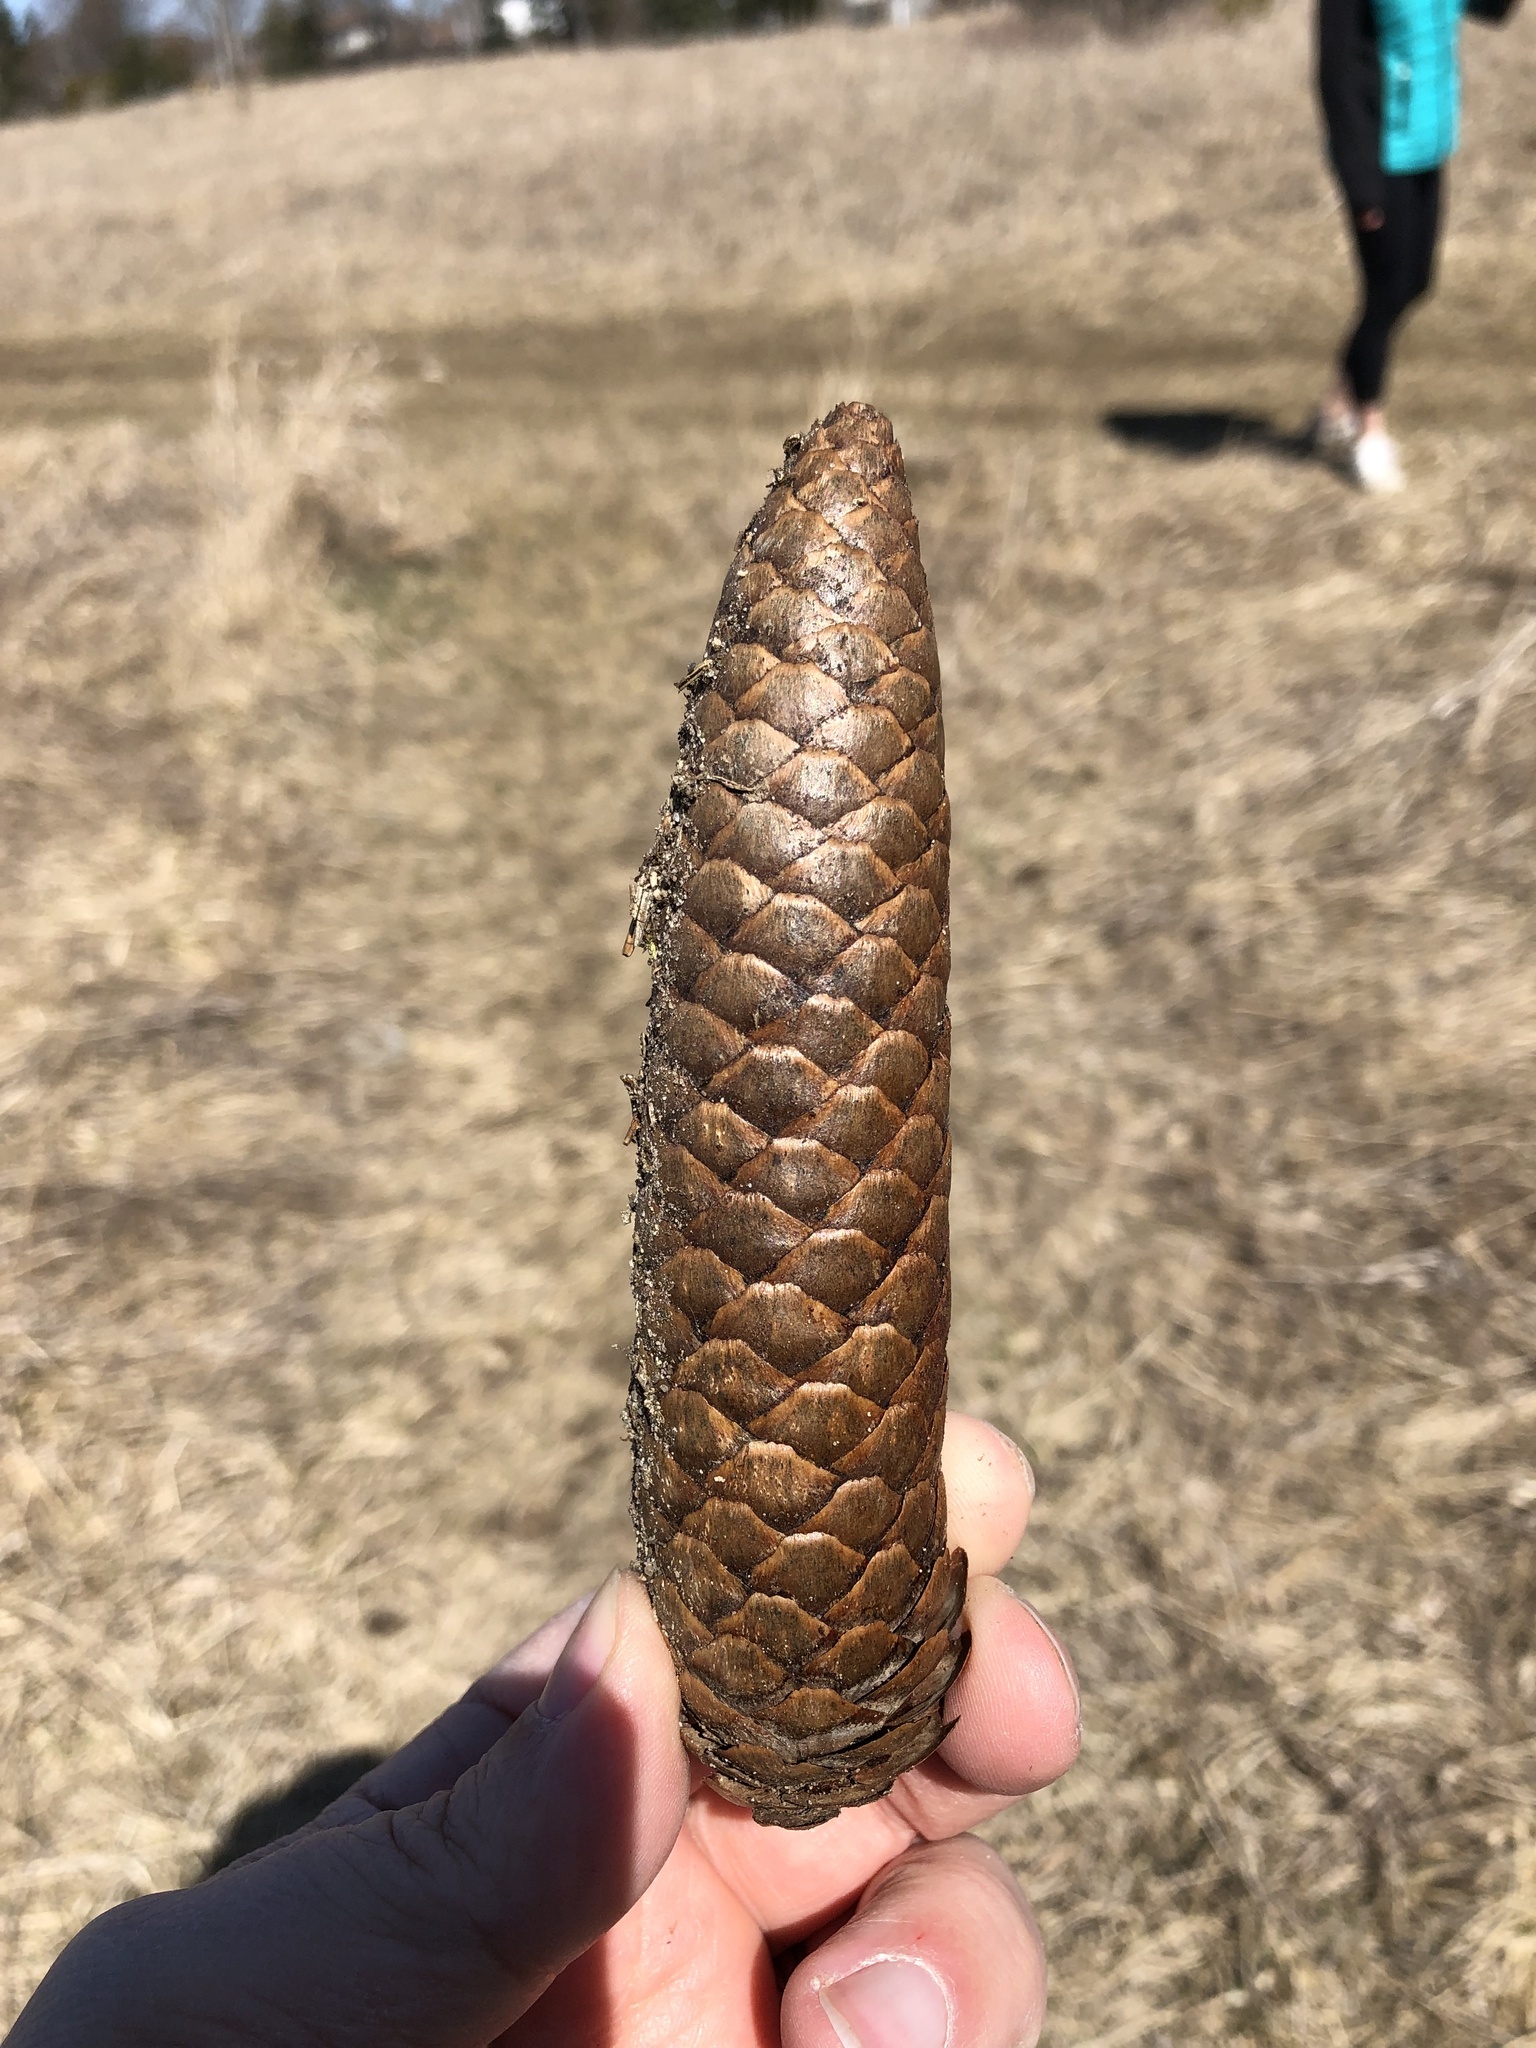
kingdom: Plantae
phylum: Tracheophyta
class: Pinopsida
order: Pinales
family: Pinaceae
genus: Picea
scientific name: Picea abies
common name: Norway spruce
